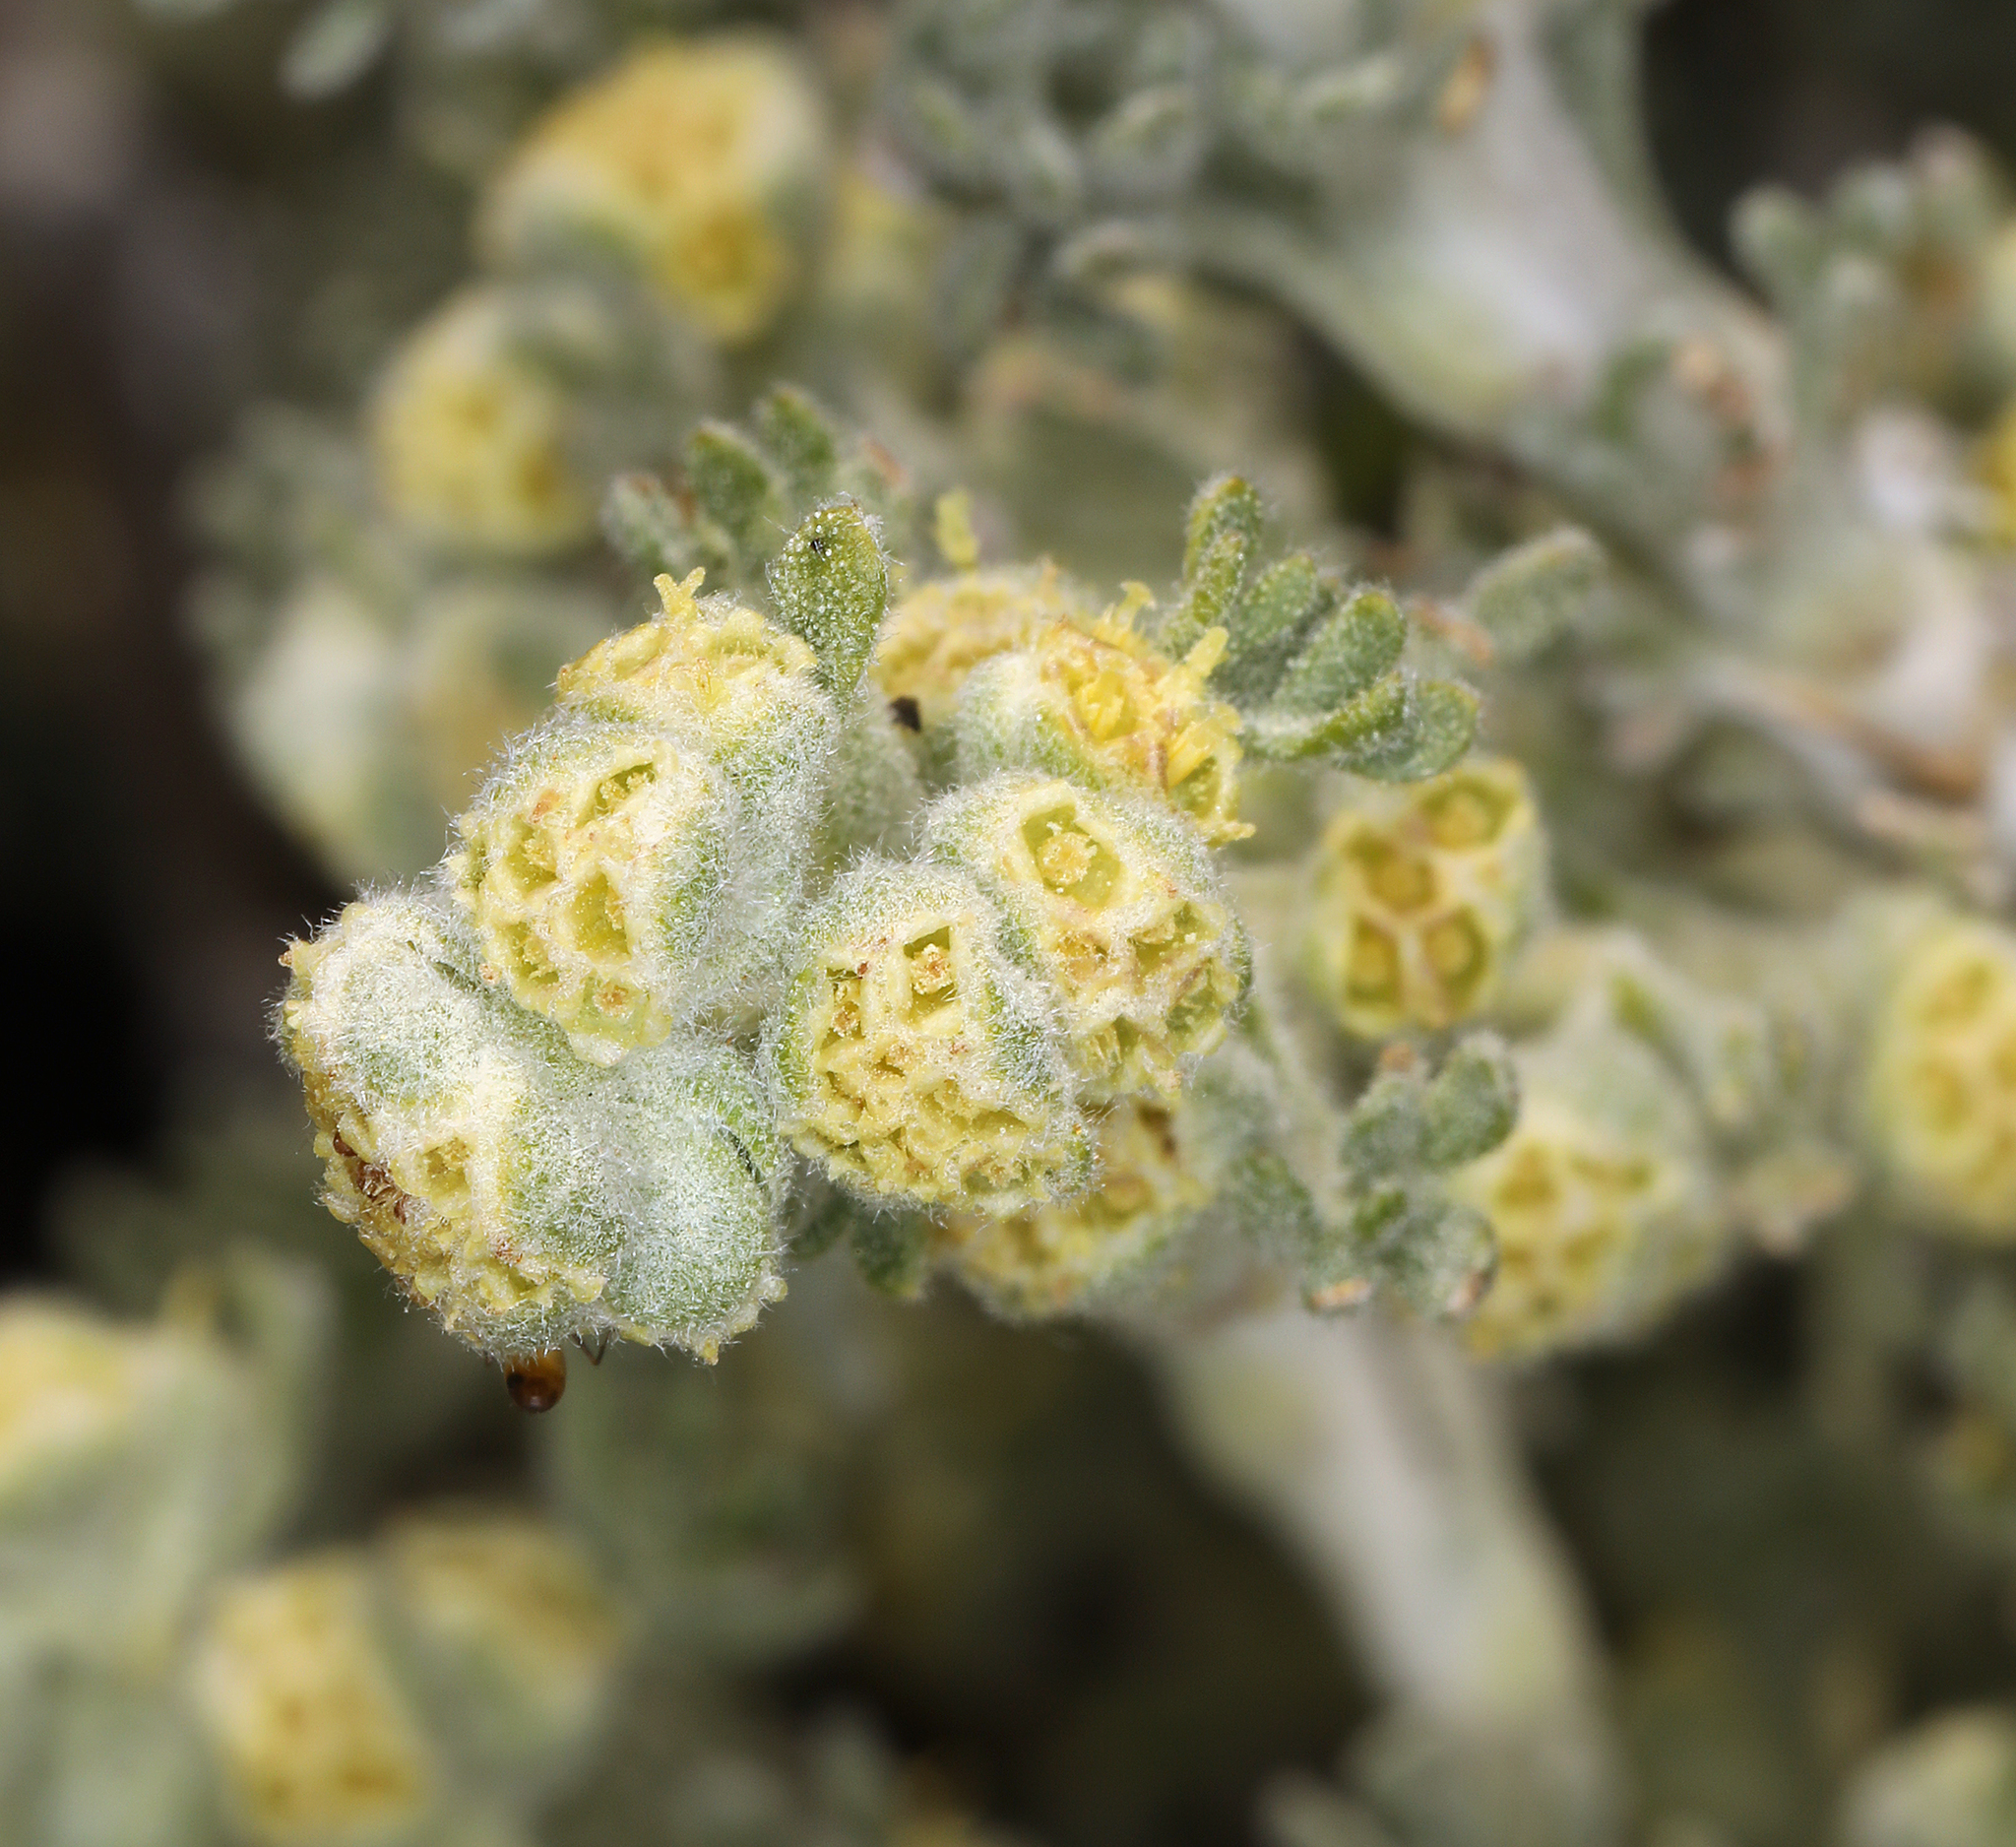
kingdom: Plantae
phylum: Tracheophyta
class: Magnoliopsida
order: Asterales
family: Asteraceae
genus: Artemisia
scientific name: Artemisia spinescens
